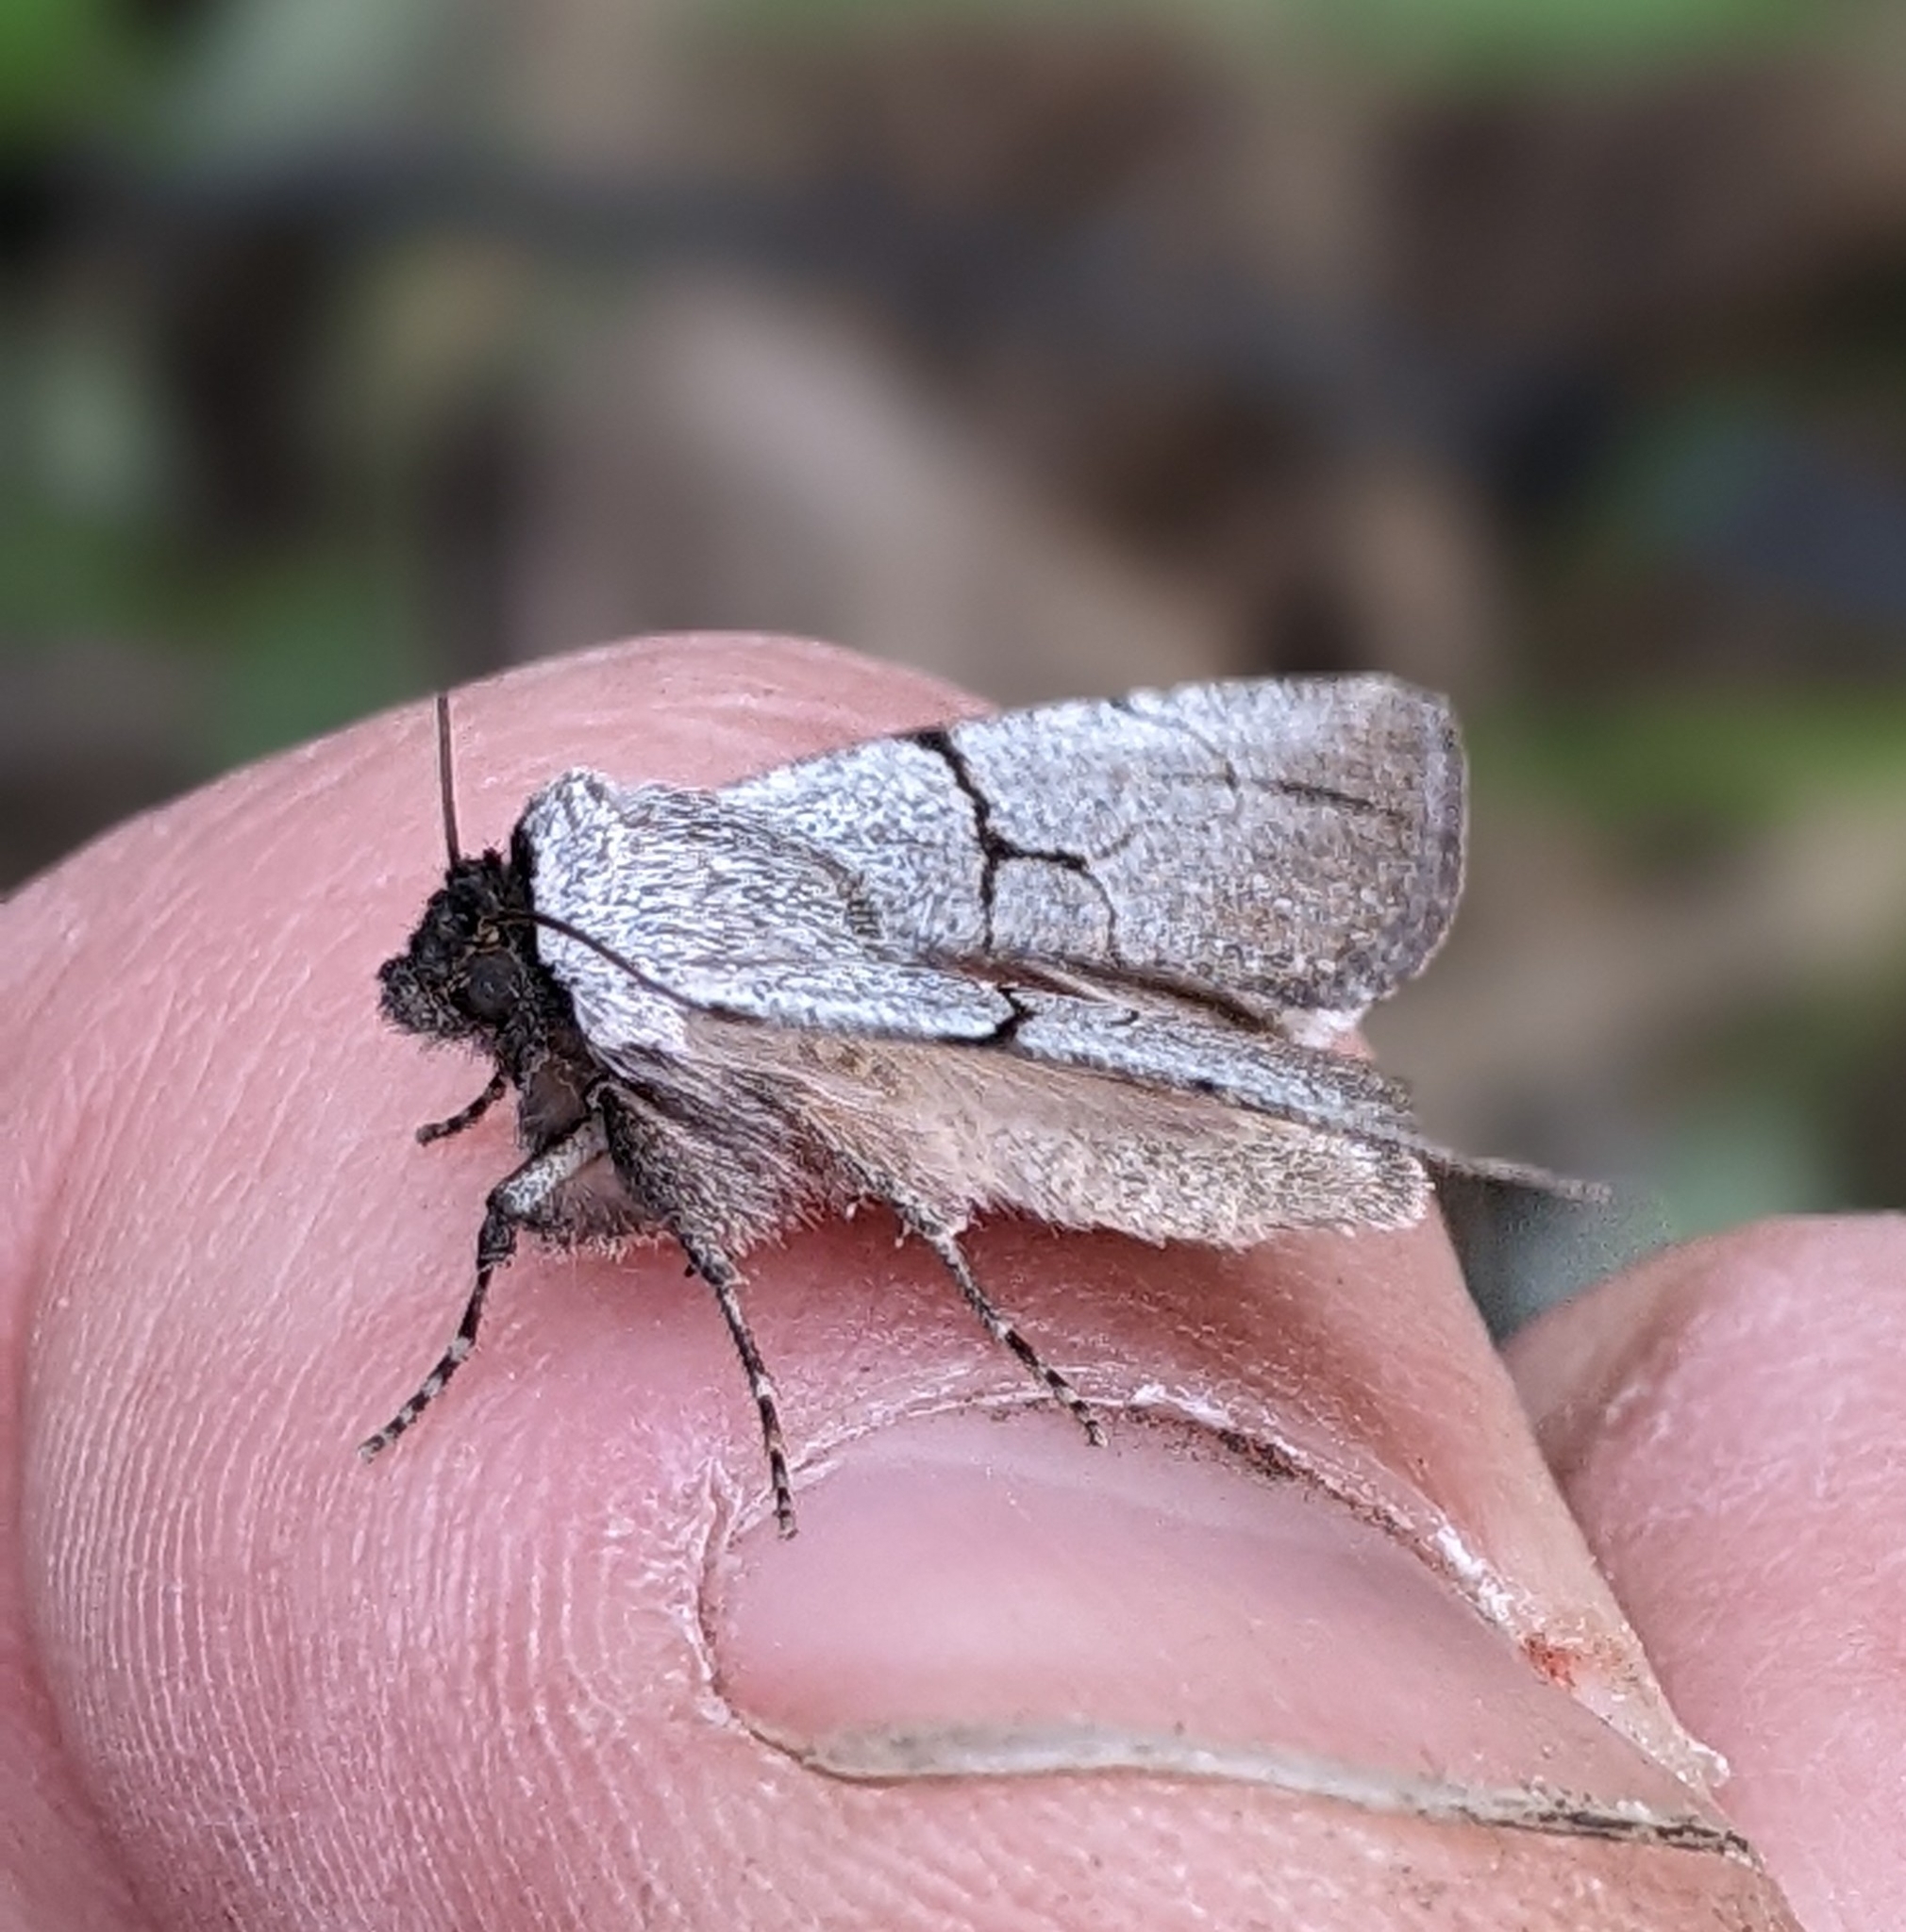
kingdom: Animalia
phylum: Arthropoda
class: Insecta
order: Lepidoptera
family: Noctuidae
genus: Sympistis
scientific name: Sympistis greyi
